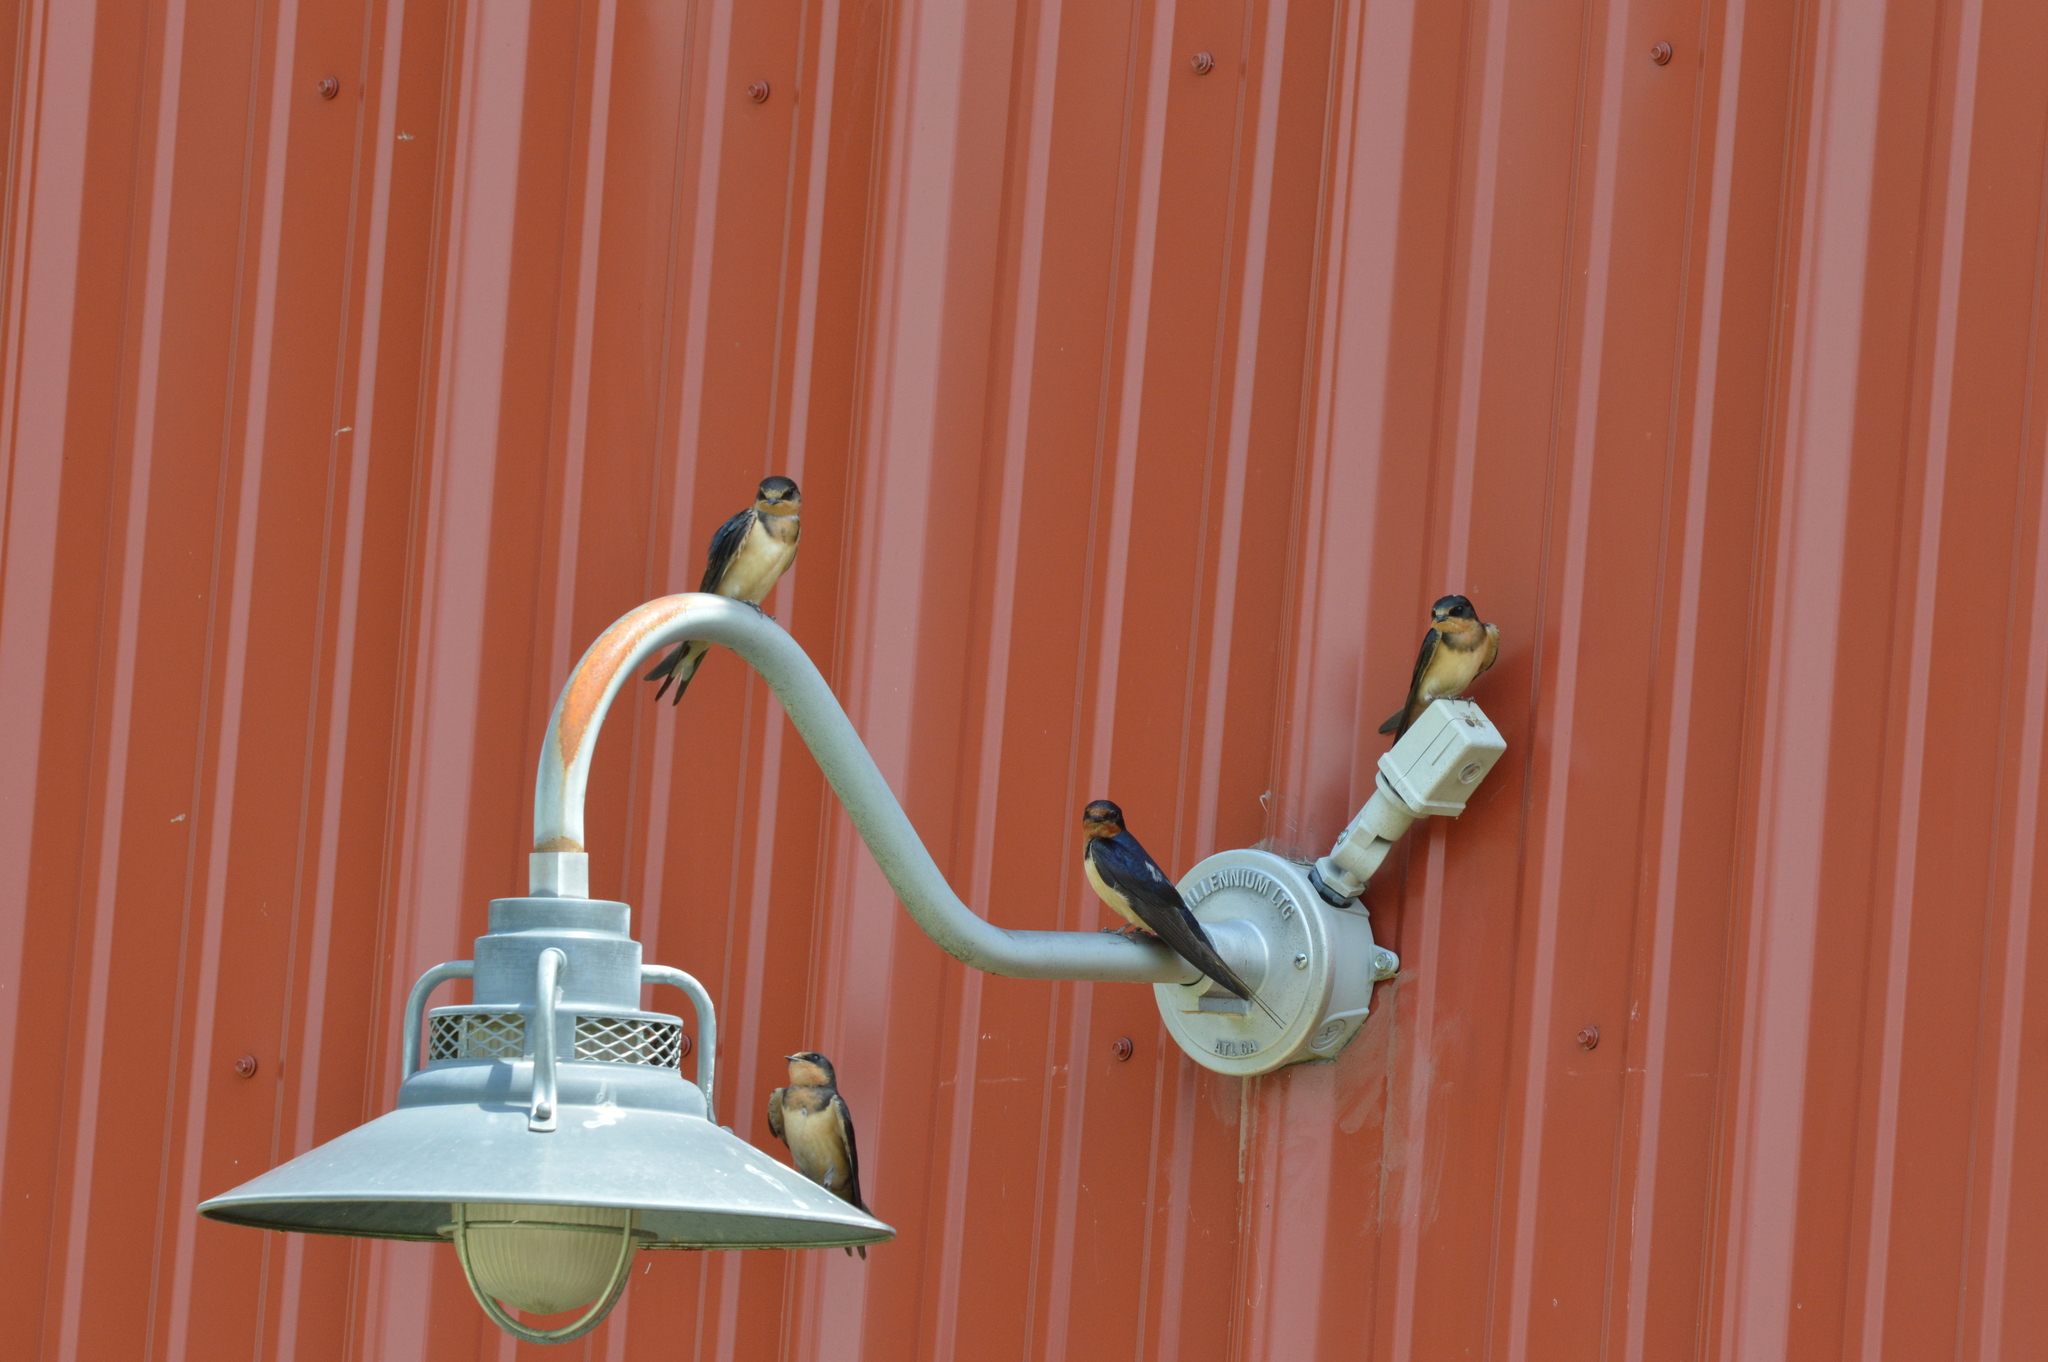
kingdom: Animalia
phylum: Chordata
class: Aves
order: Passeriformes
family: Hirundinidae
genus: Hirundo
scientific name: Hirundo rustica
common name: Barn swallow
